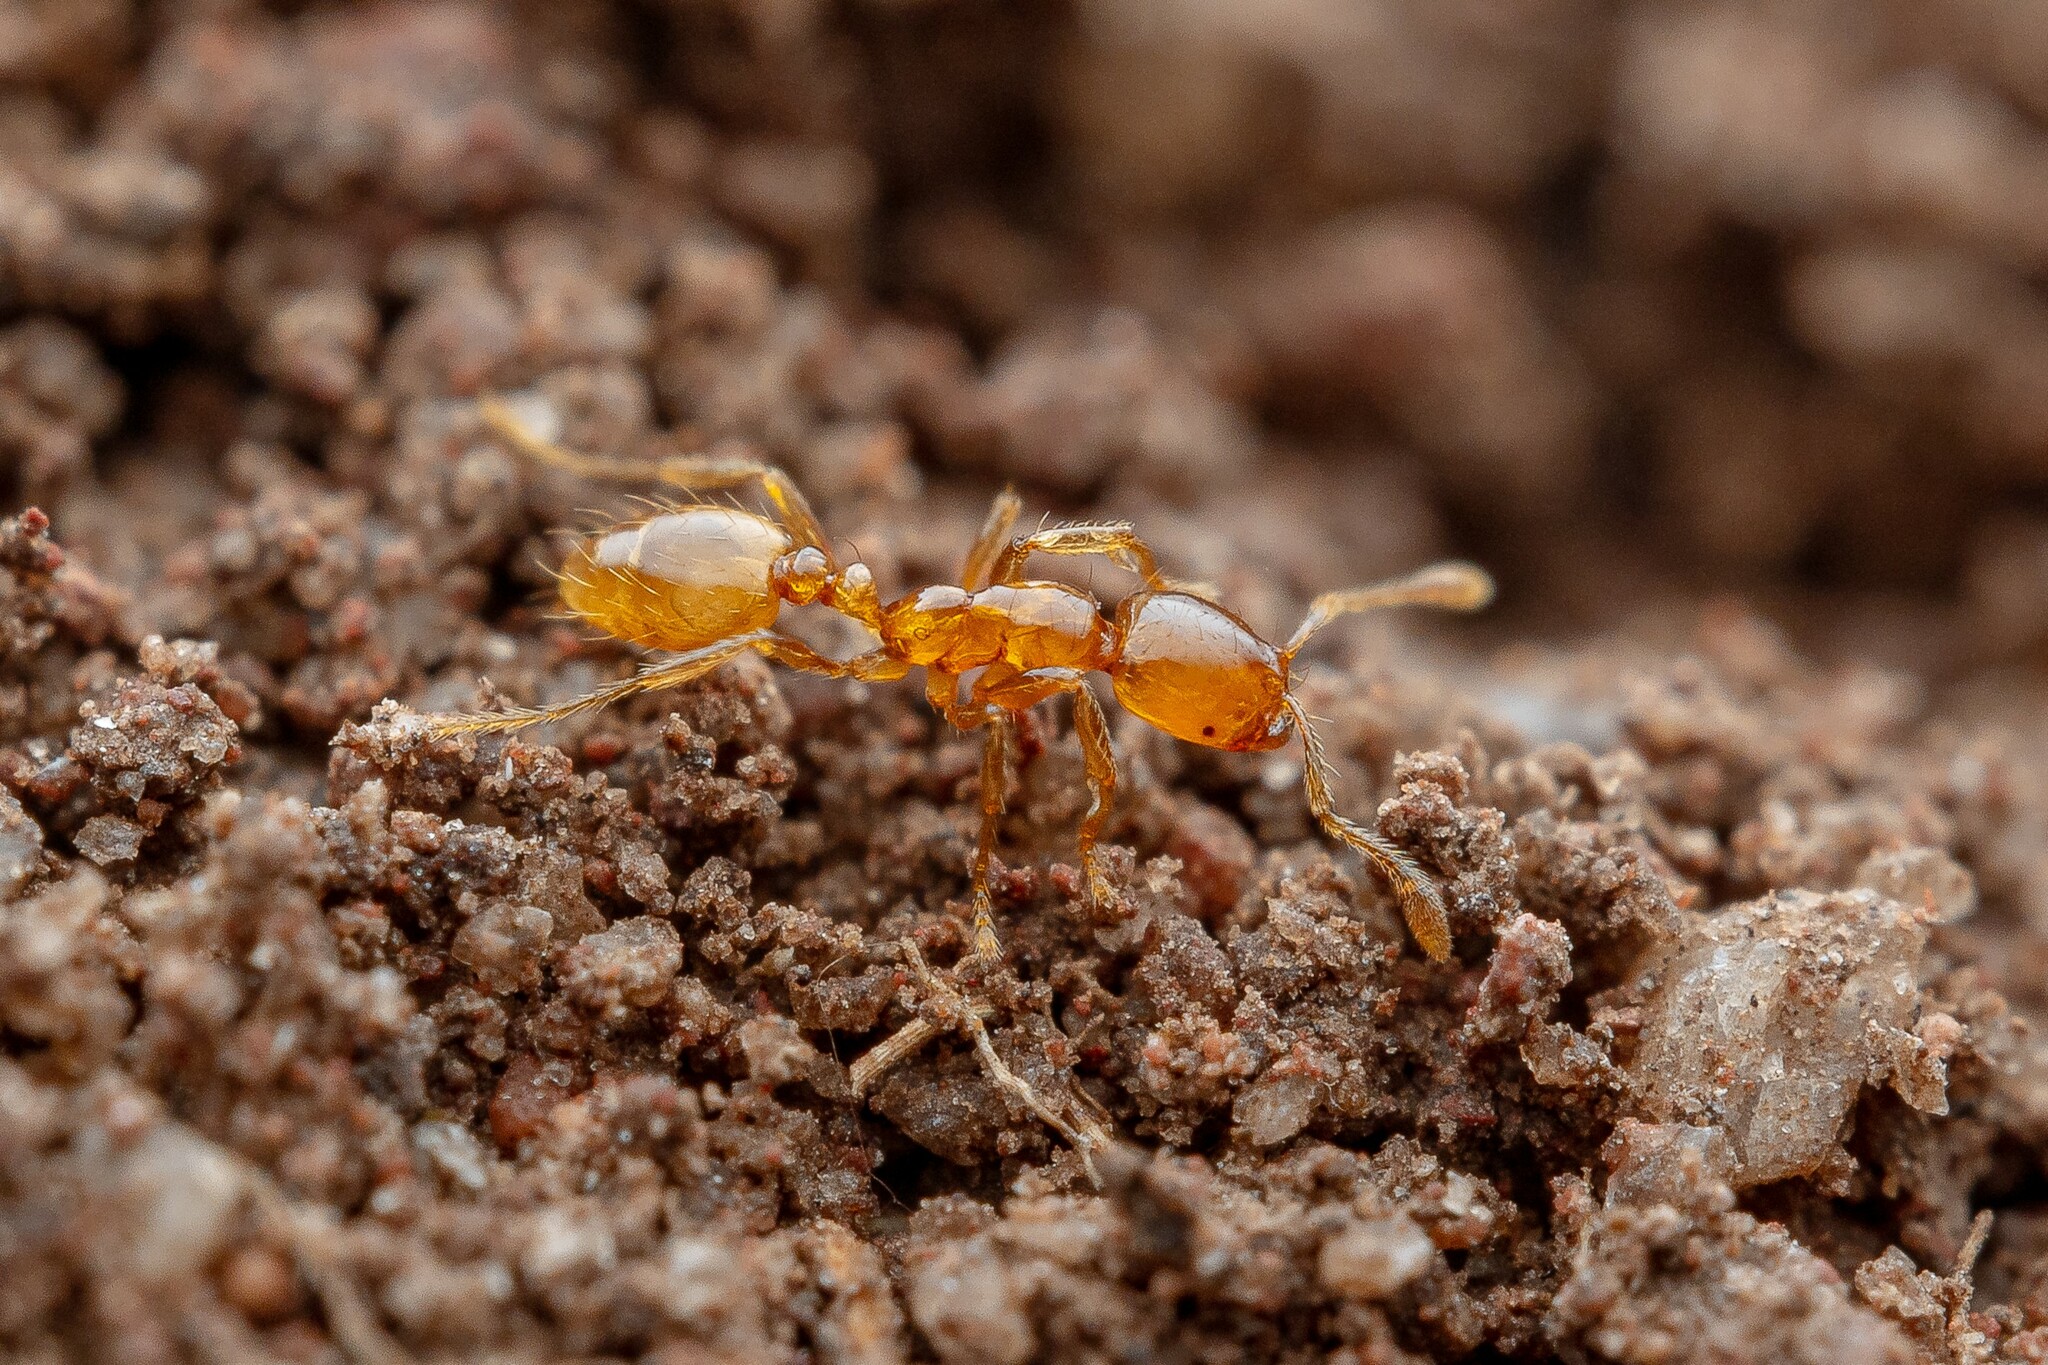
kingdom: Animalia
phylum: Arthropoda
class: Insecta
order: Hymenoptera
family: Formicidae
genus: Solenopsis
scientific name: Solenopsis
